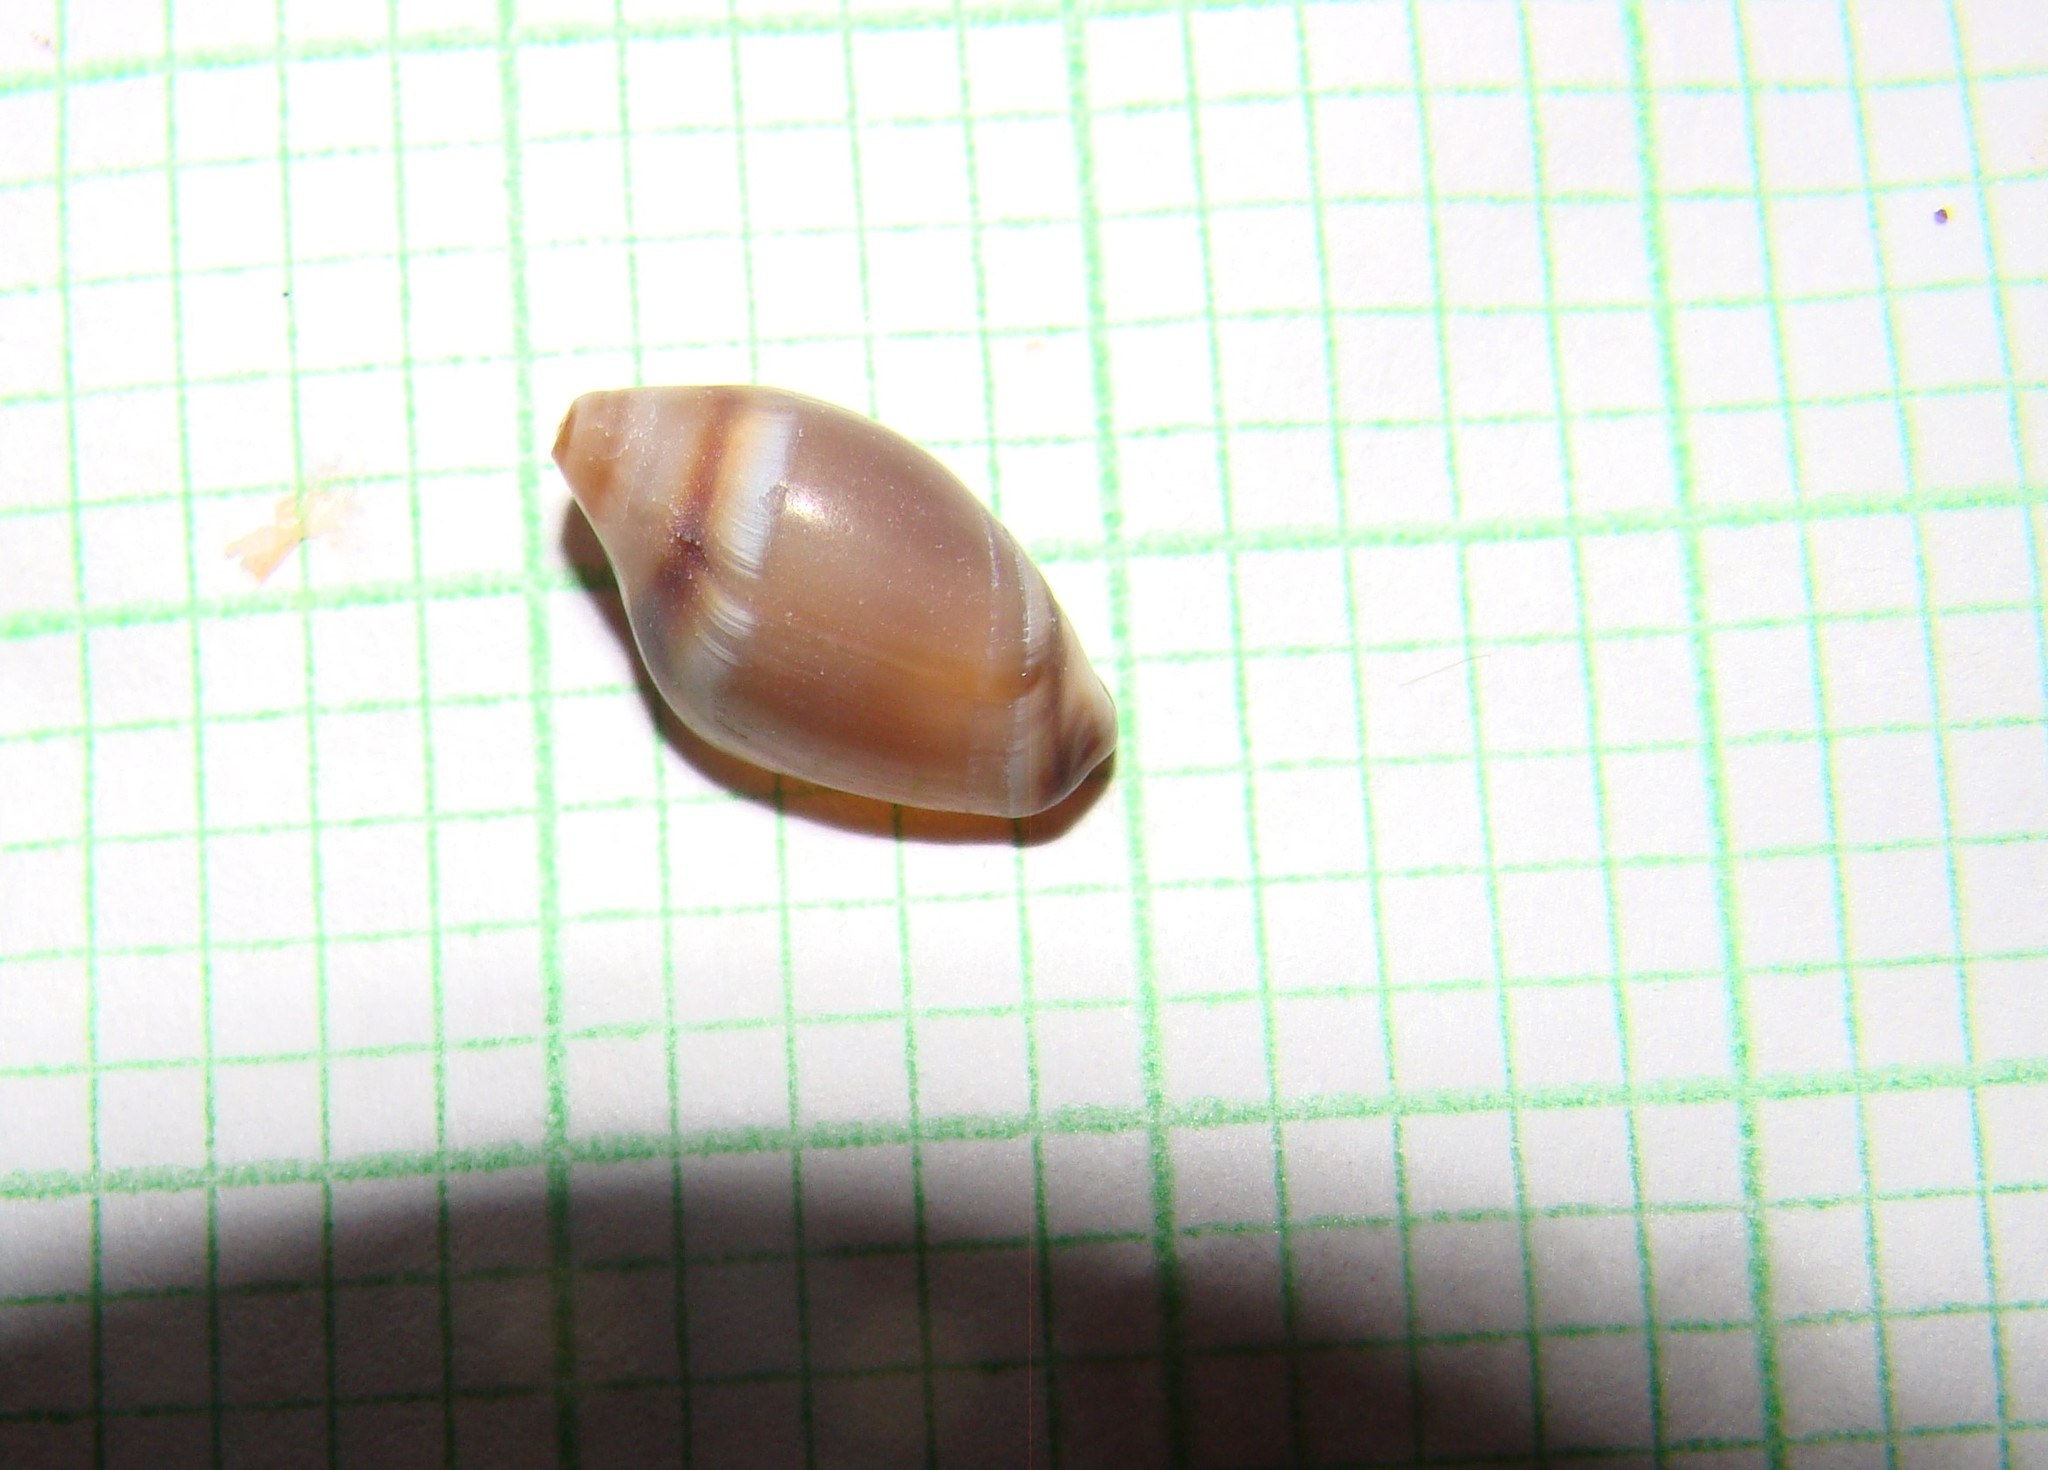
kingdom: Animalia
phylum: Mollusca
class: Gastropoda
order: Neogastropoda
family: Ancillariidae
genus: Amalda
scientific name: Amalda depressa
